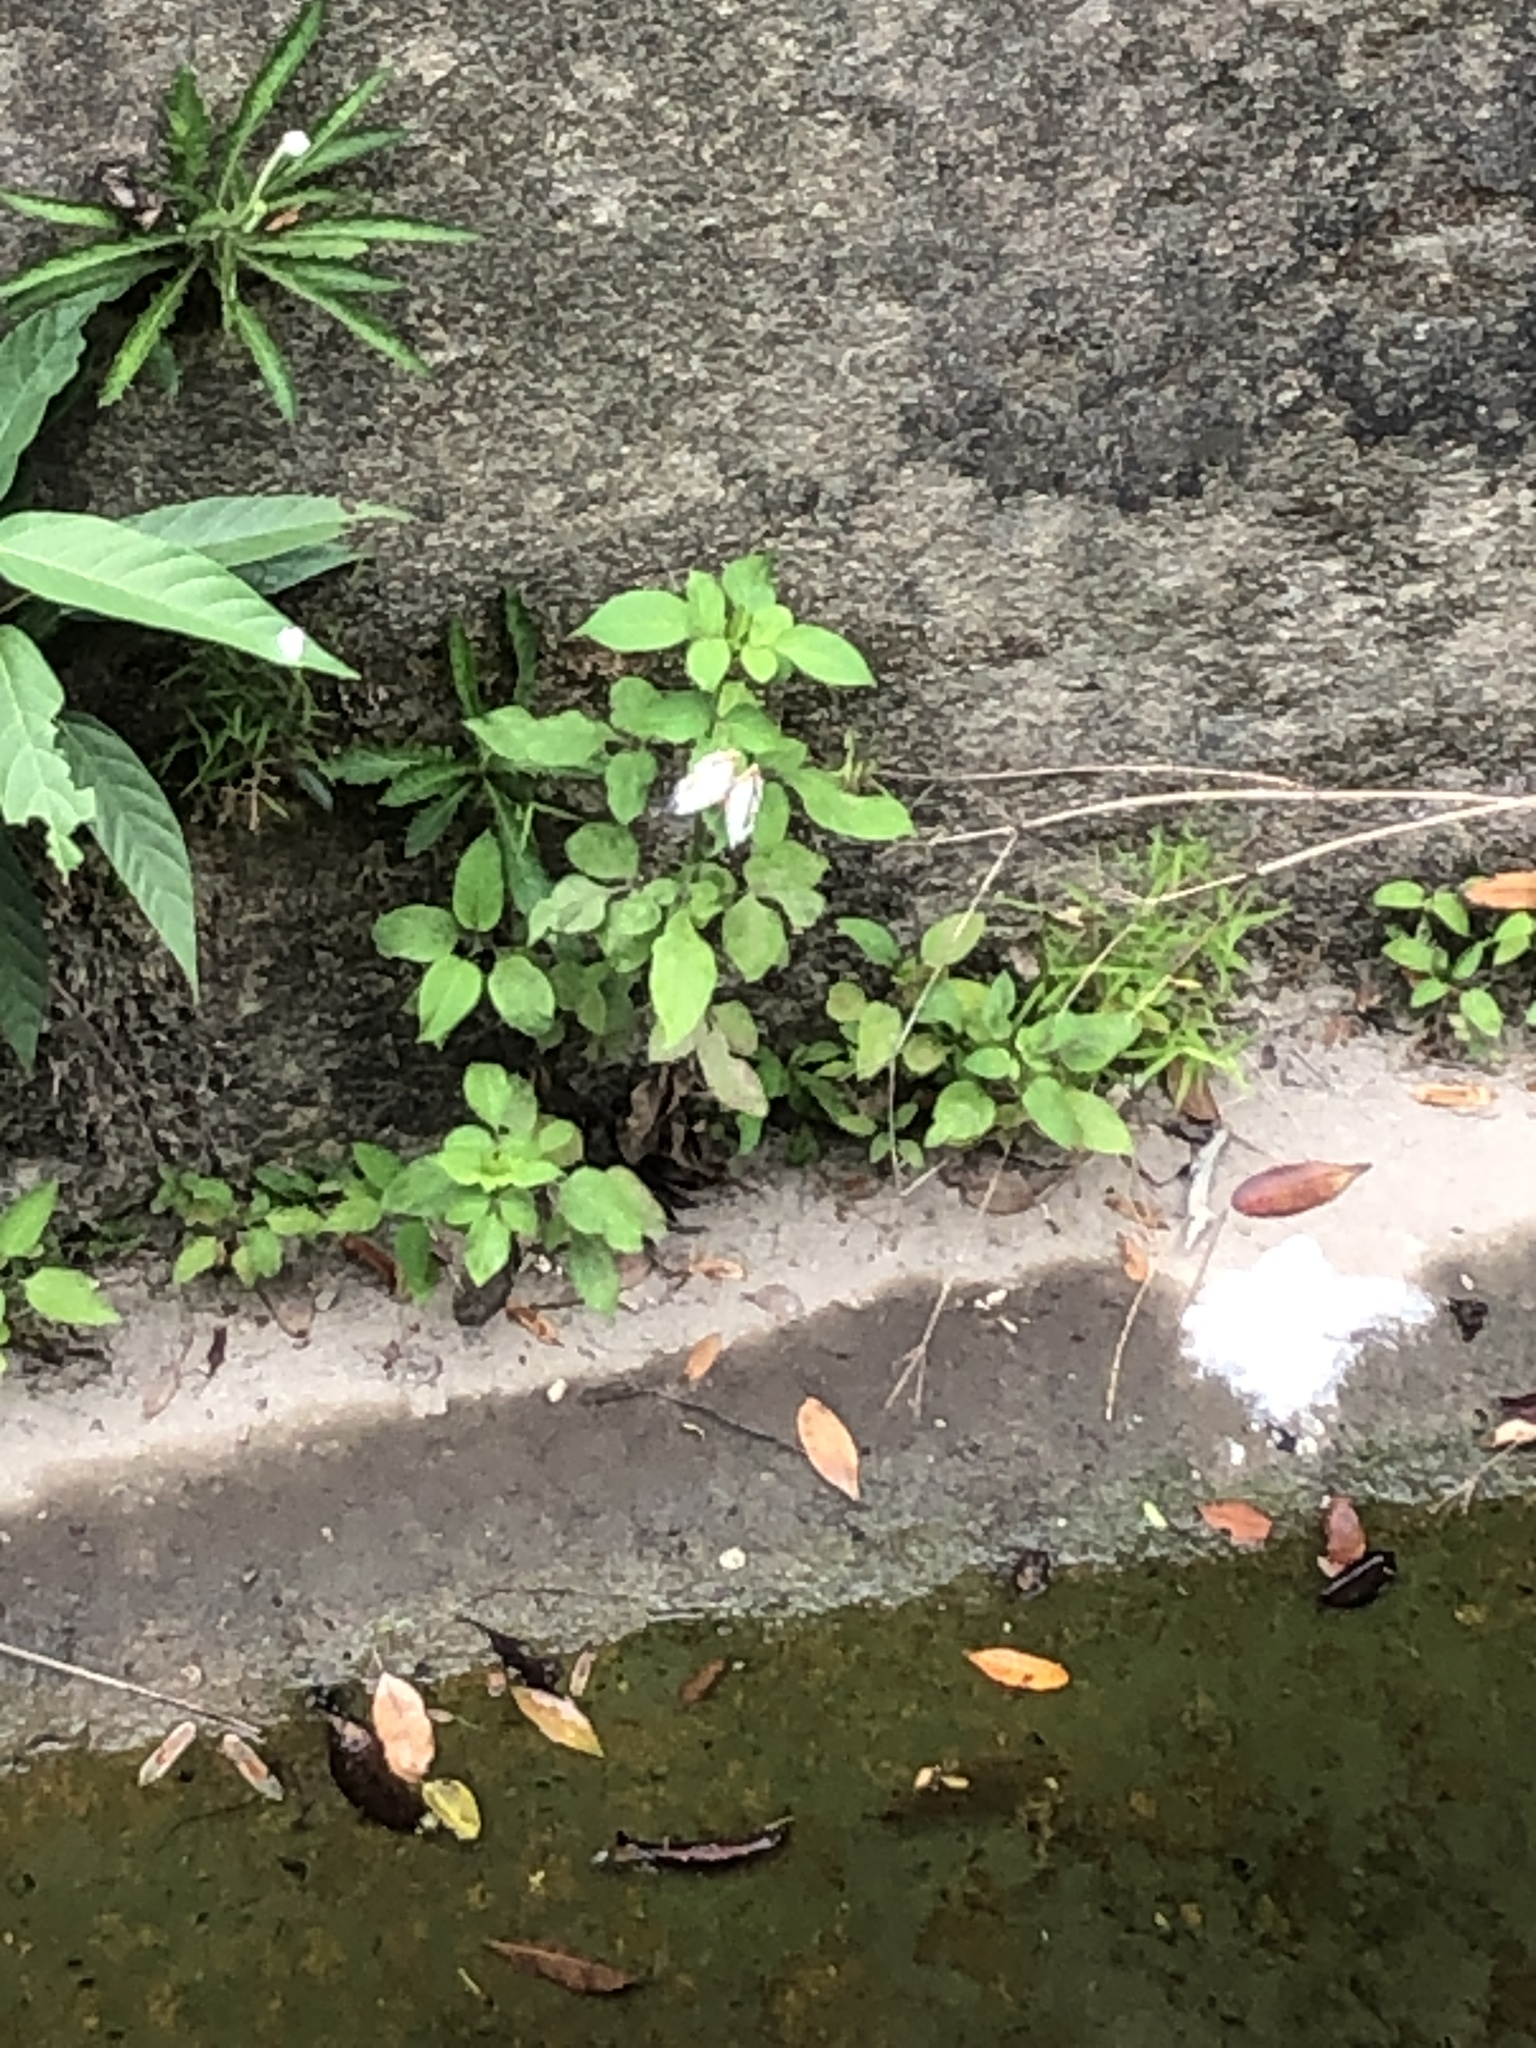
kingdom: Animalia
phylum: Arthropoda
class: Insecta
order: Lepidoptera
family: Nymphalidae
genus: Cyrestis
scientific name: Cyrestis thyodamas
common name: Common mapwing
